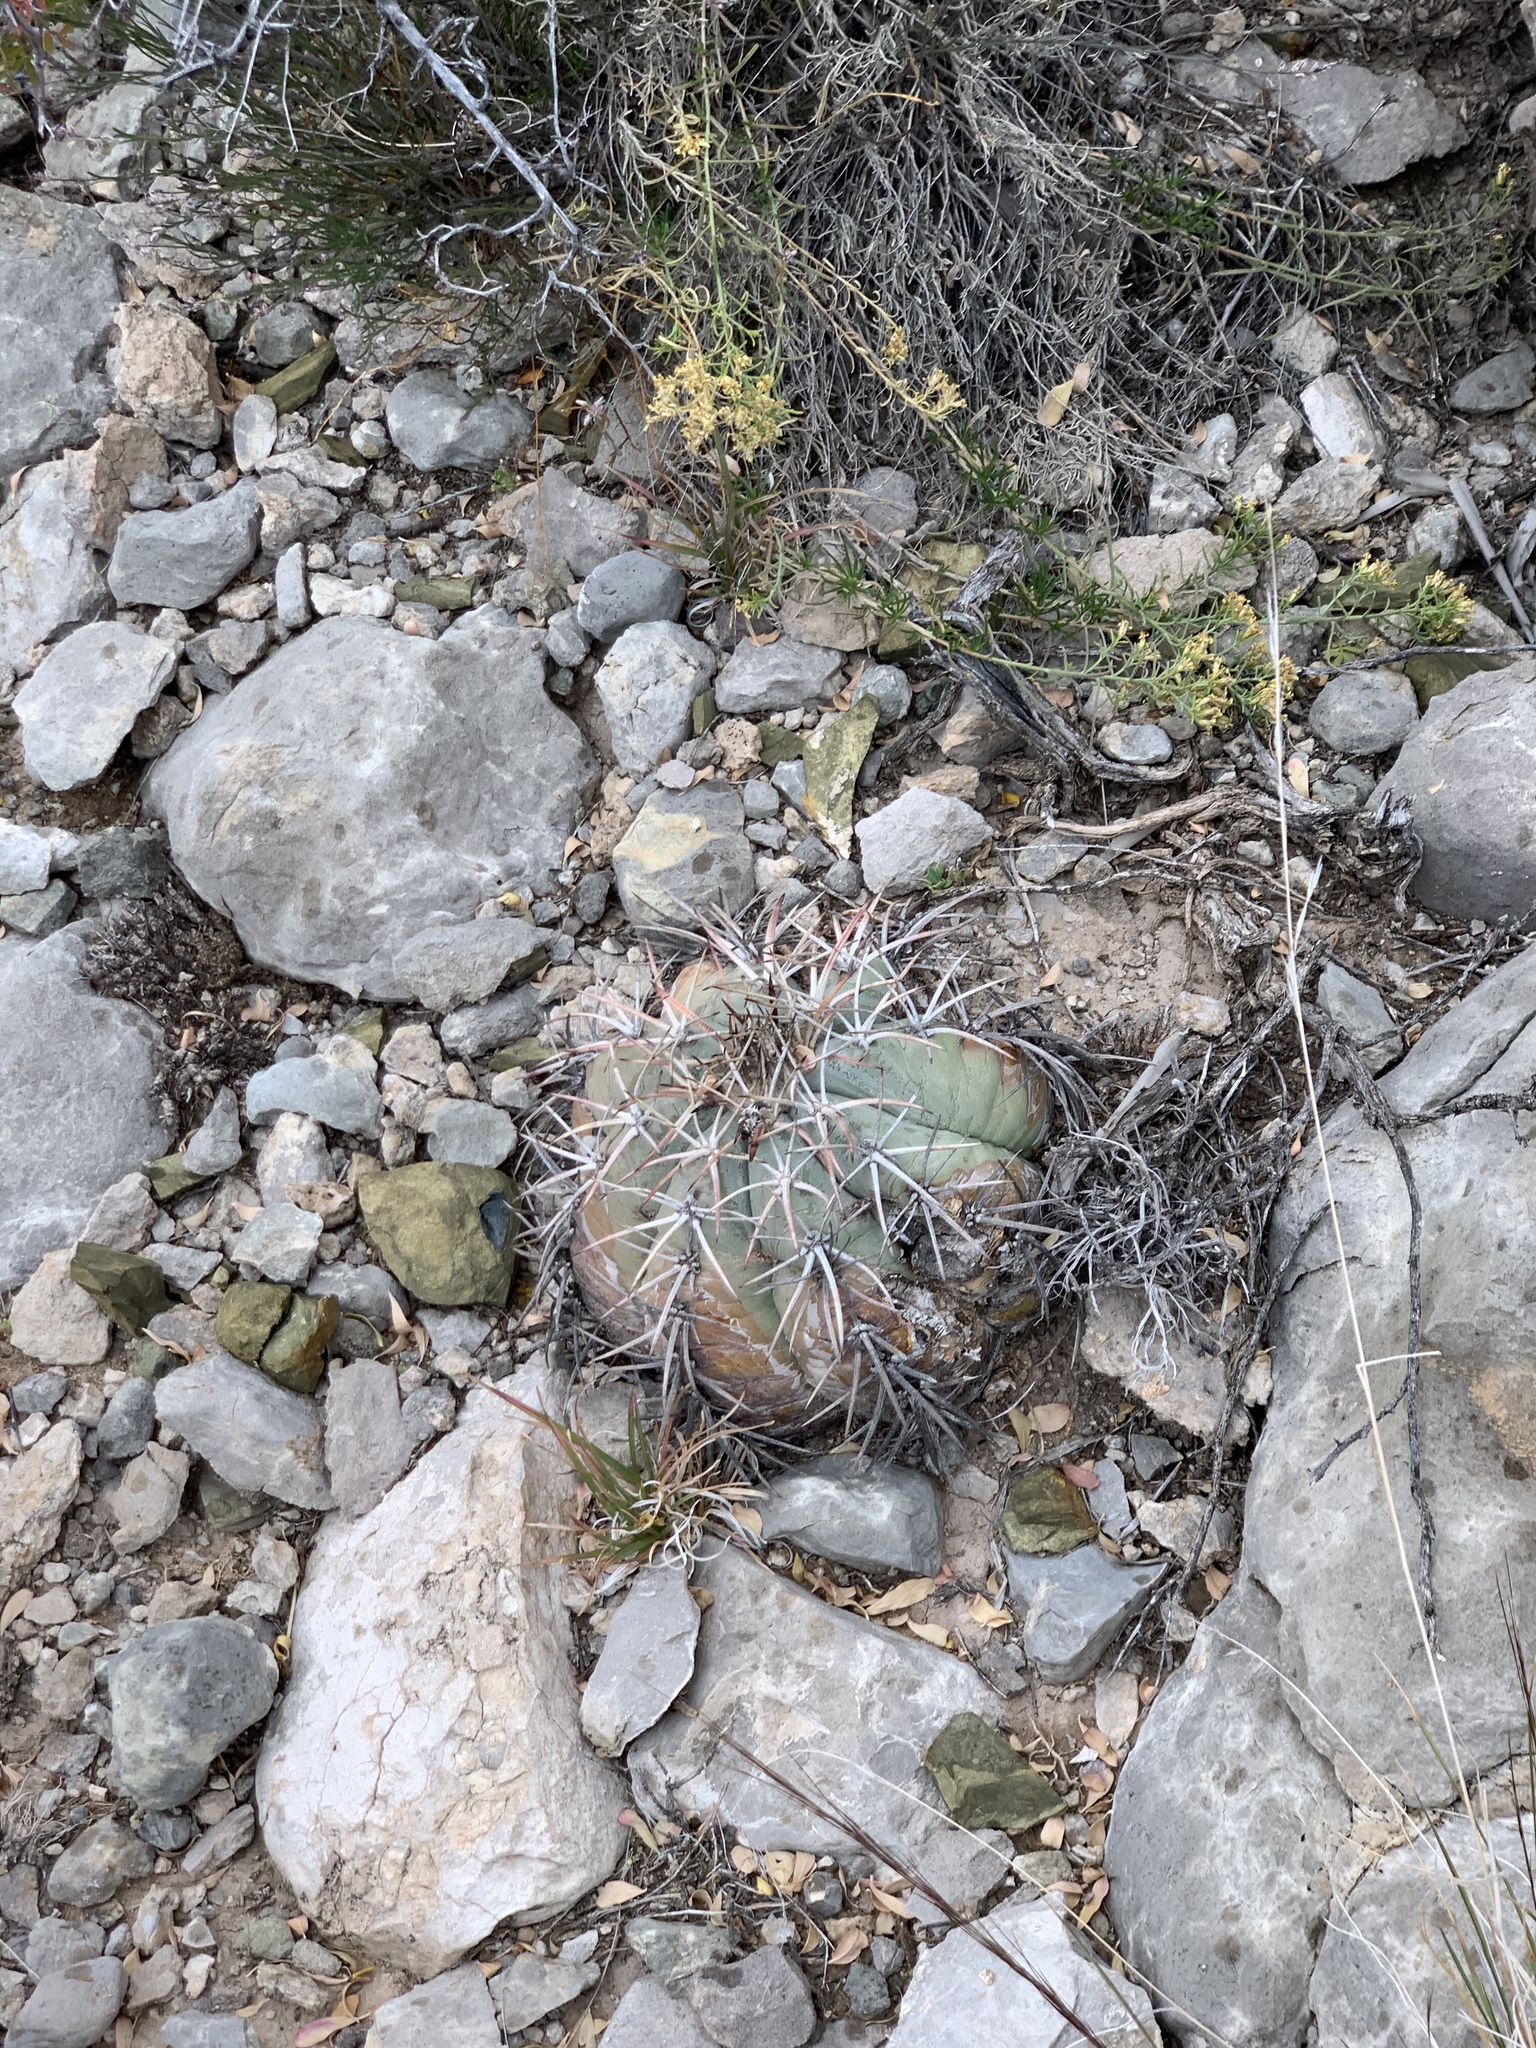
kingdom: Plantae
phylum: Tracheophyta
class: Magnoliopsida
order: Caryophyllales
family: Cactaceae
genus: Echinocactus
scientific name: Echinocactus horizonthalonius
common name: Devilshead
